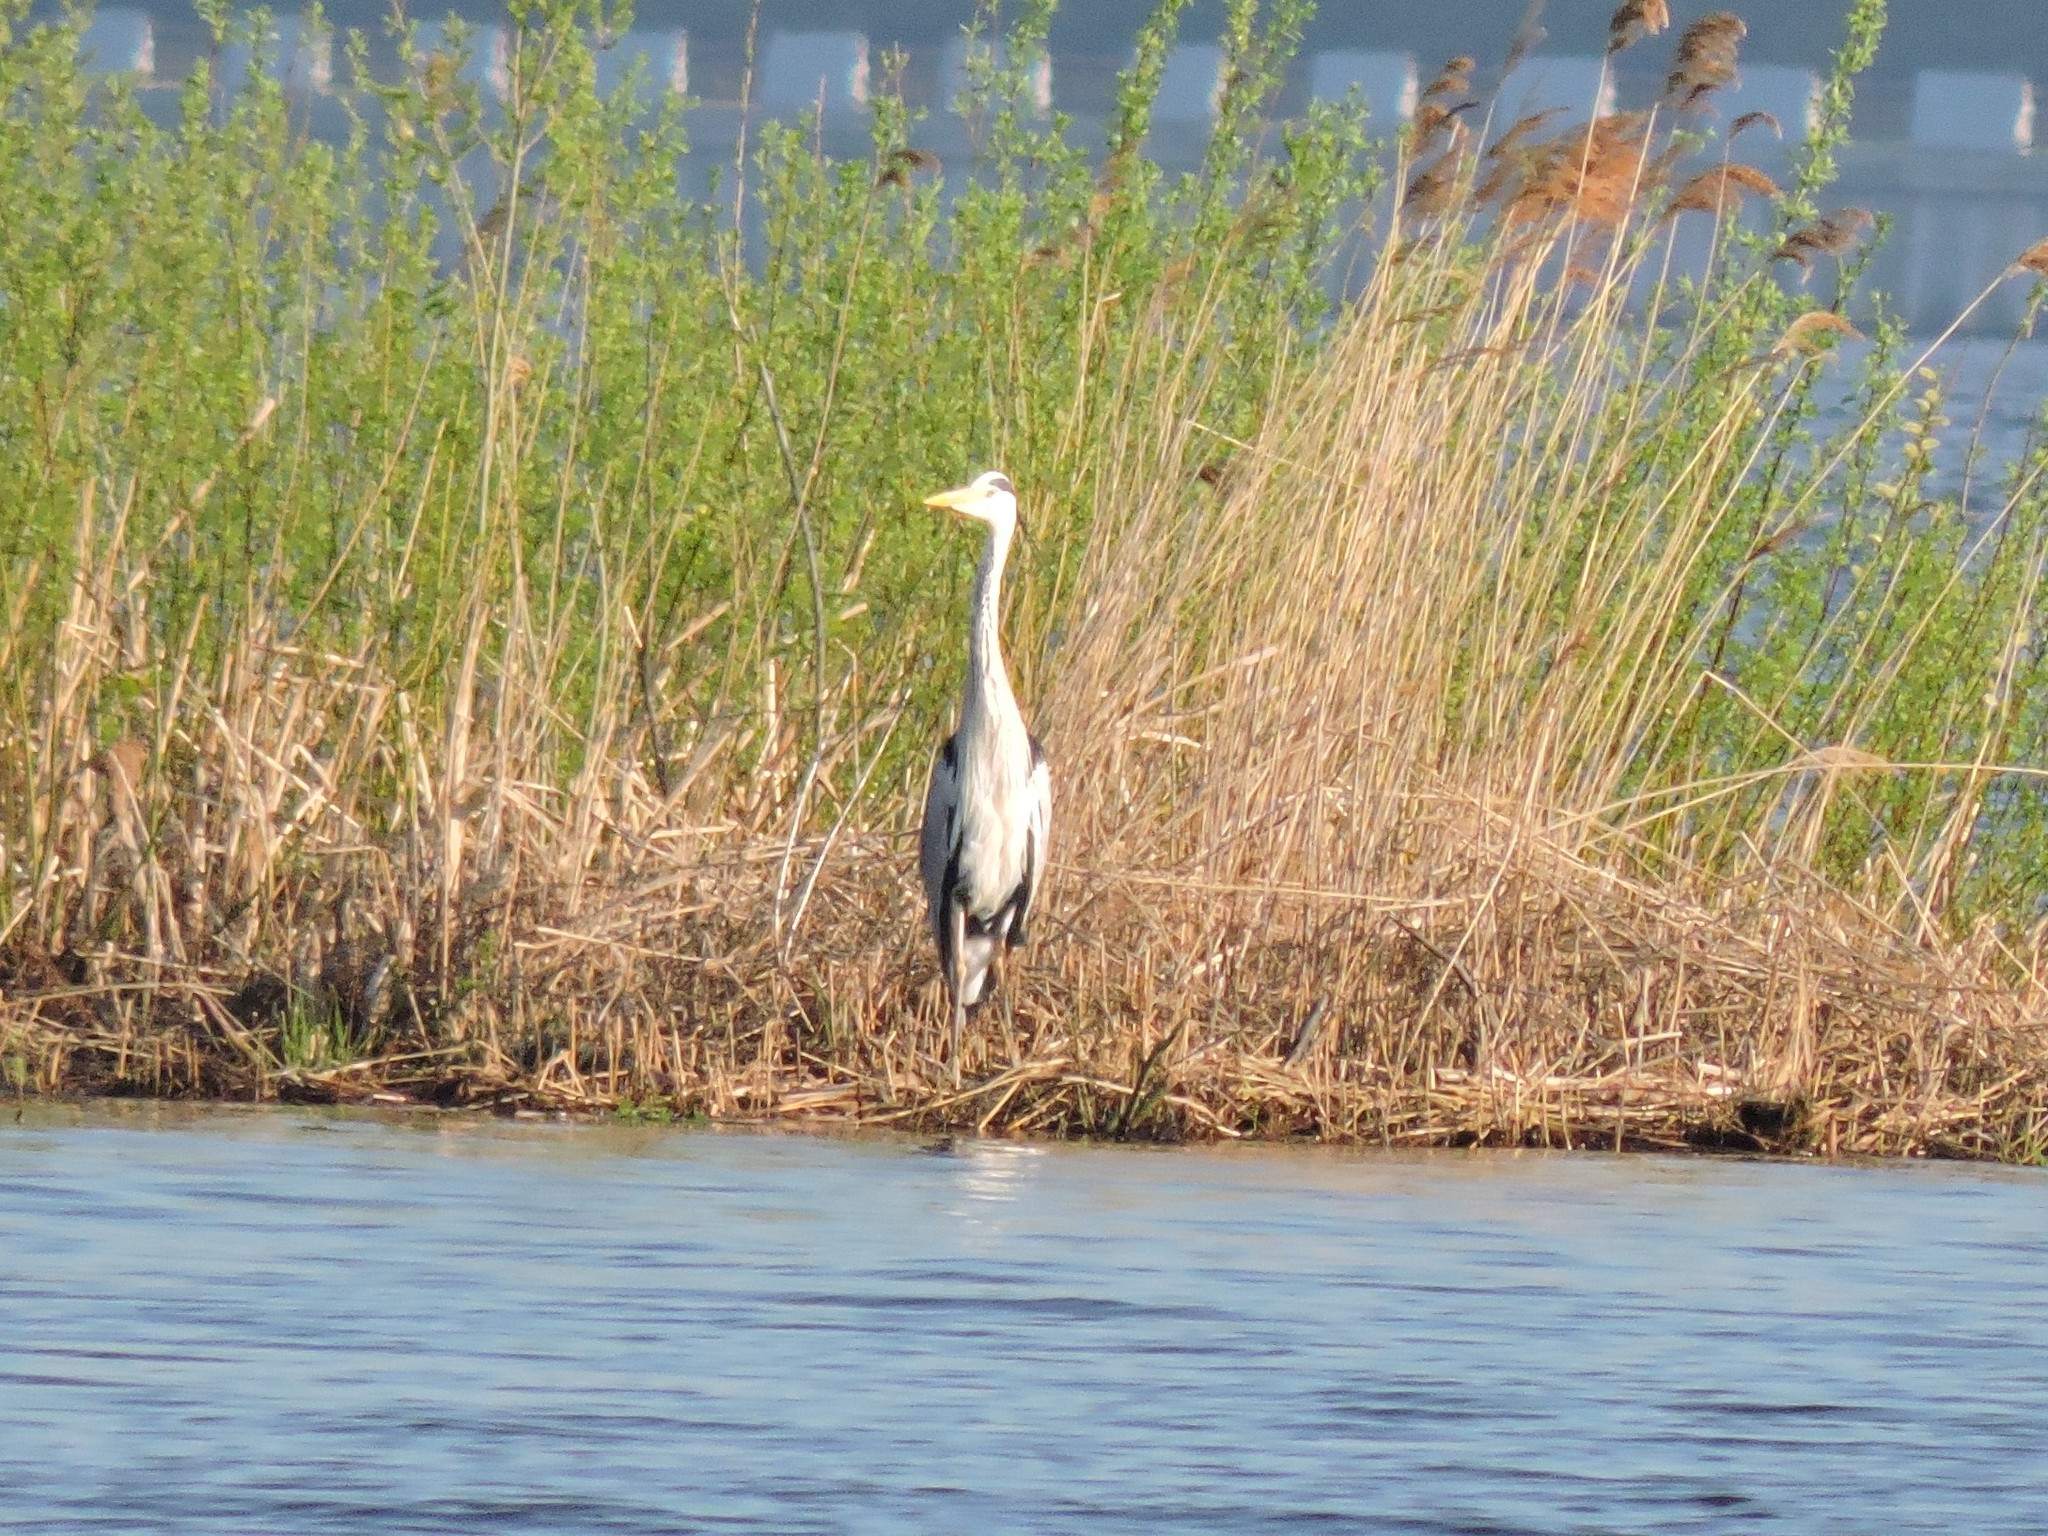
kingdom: Animalia
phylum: Chordata
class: Aves
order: Pelecaniformes
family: Ardeidae
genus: Ardea
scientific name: Ardea cinerea
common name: Grey heron
